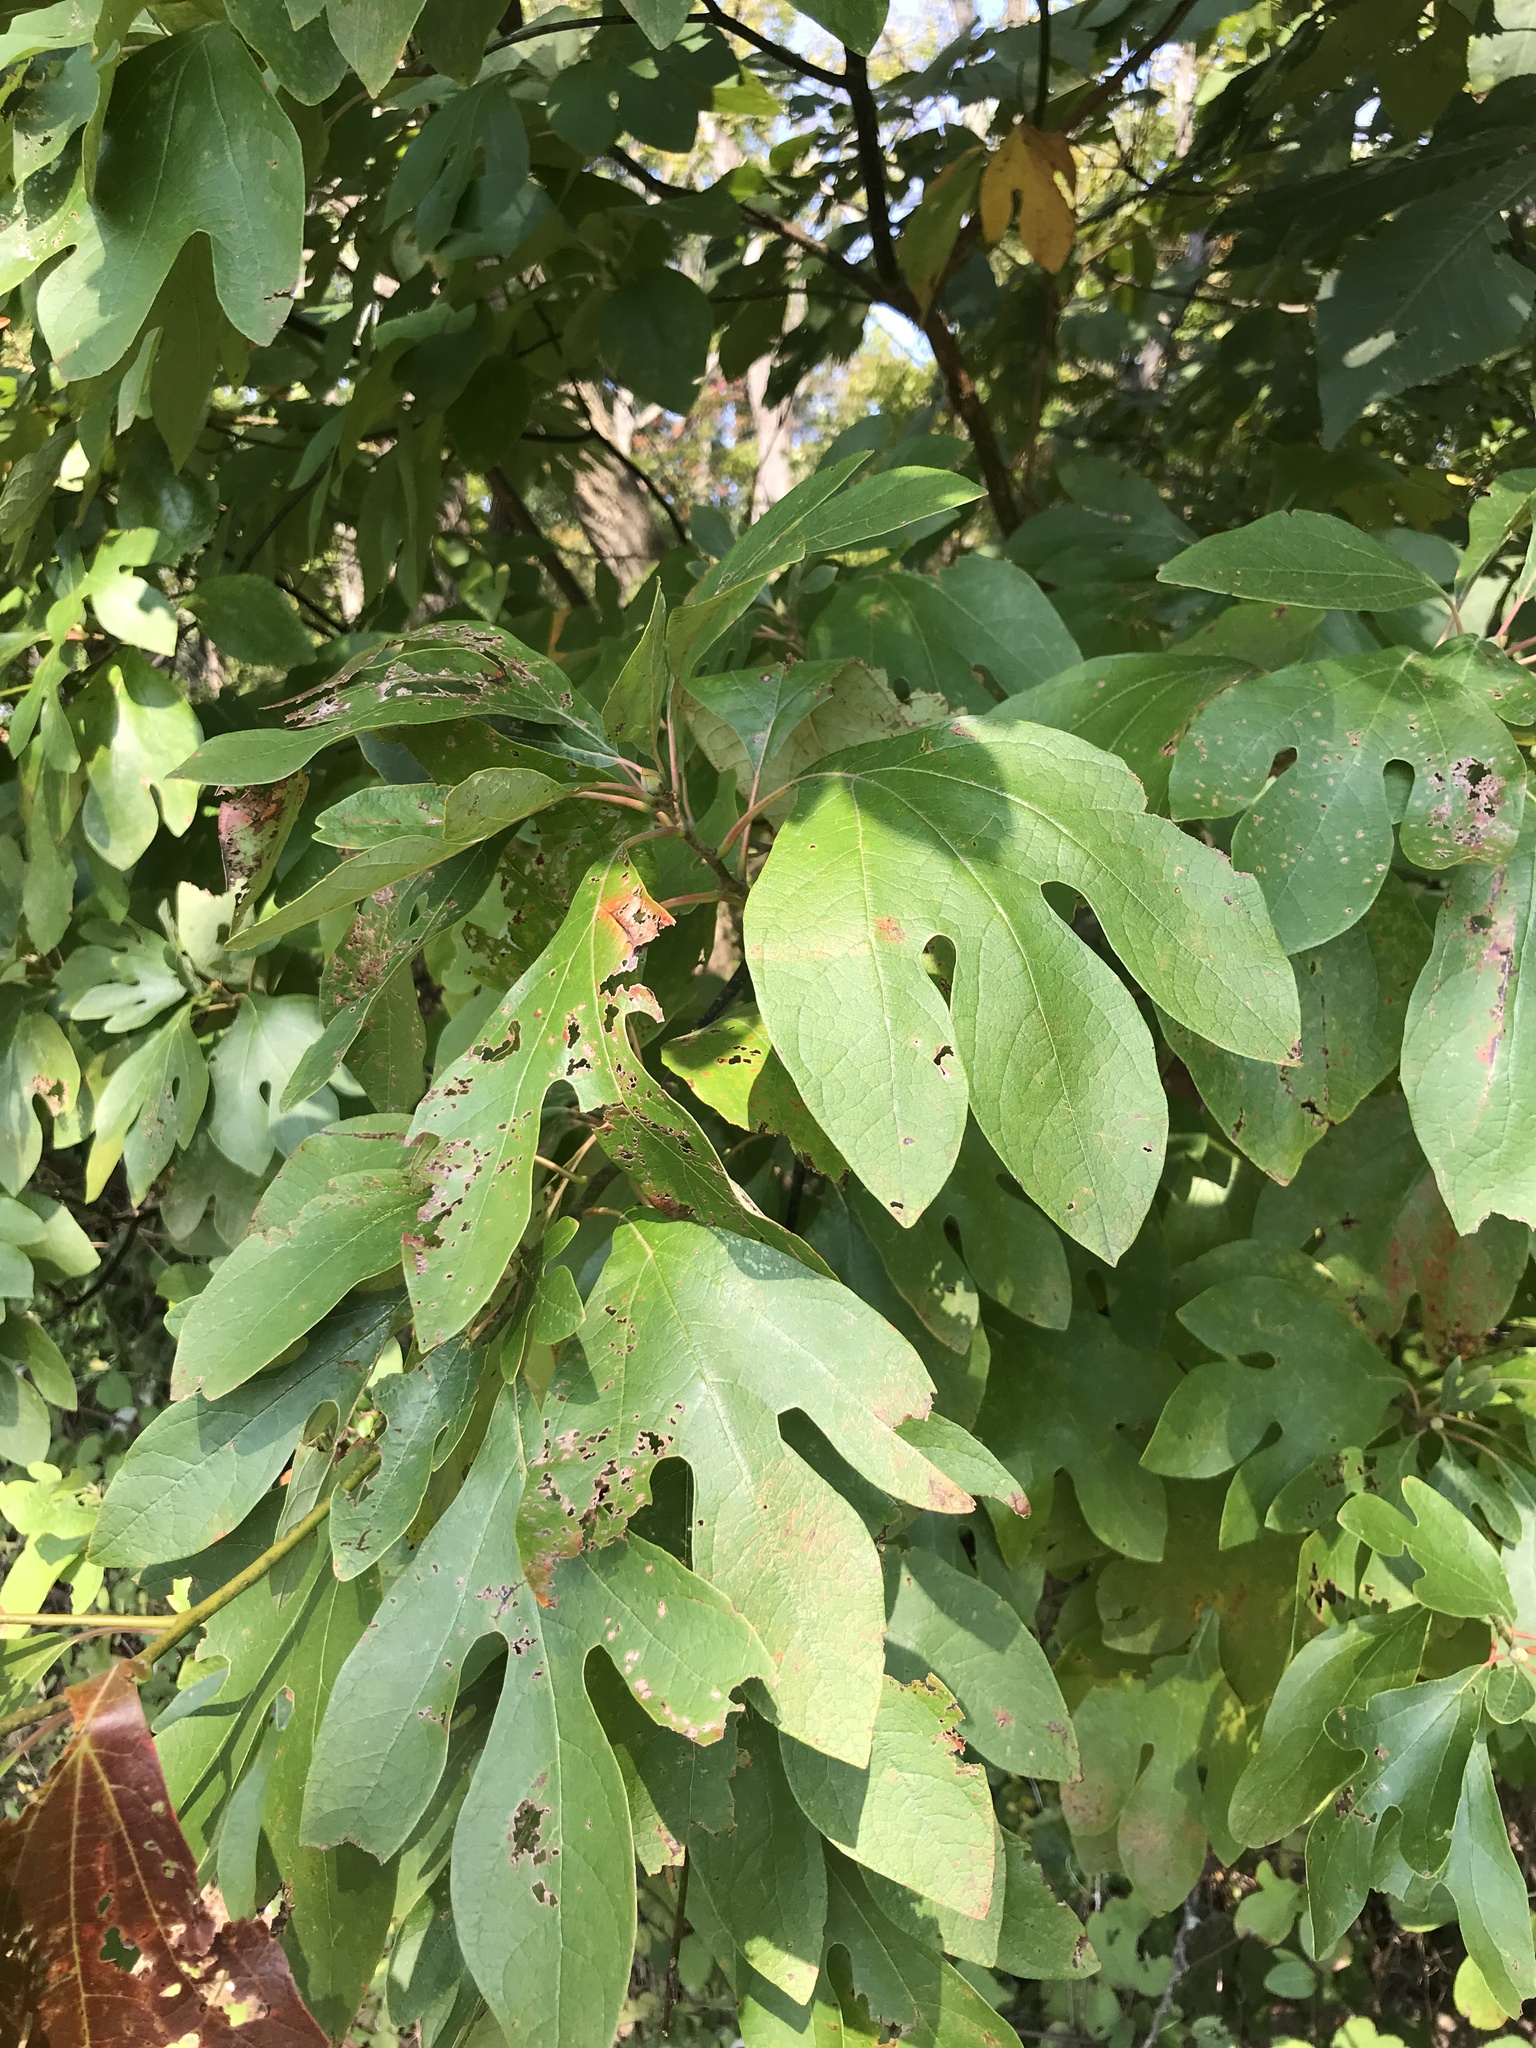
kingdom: Plantae
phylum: Tracheophyta
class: Magnoliopsida
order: Laurales
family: Lauraceae
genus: Sassafras
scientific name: Sassafras albidum
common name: Sassafras
